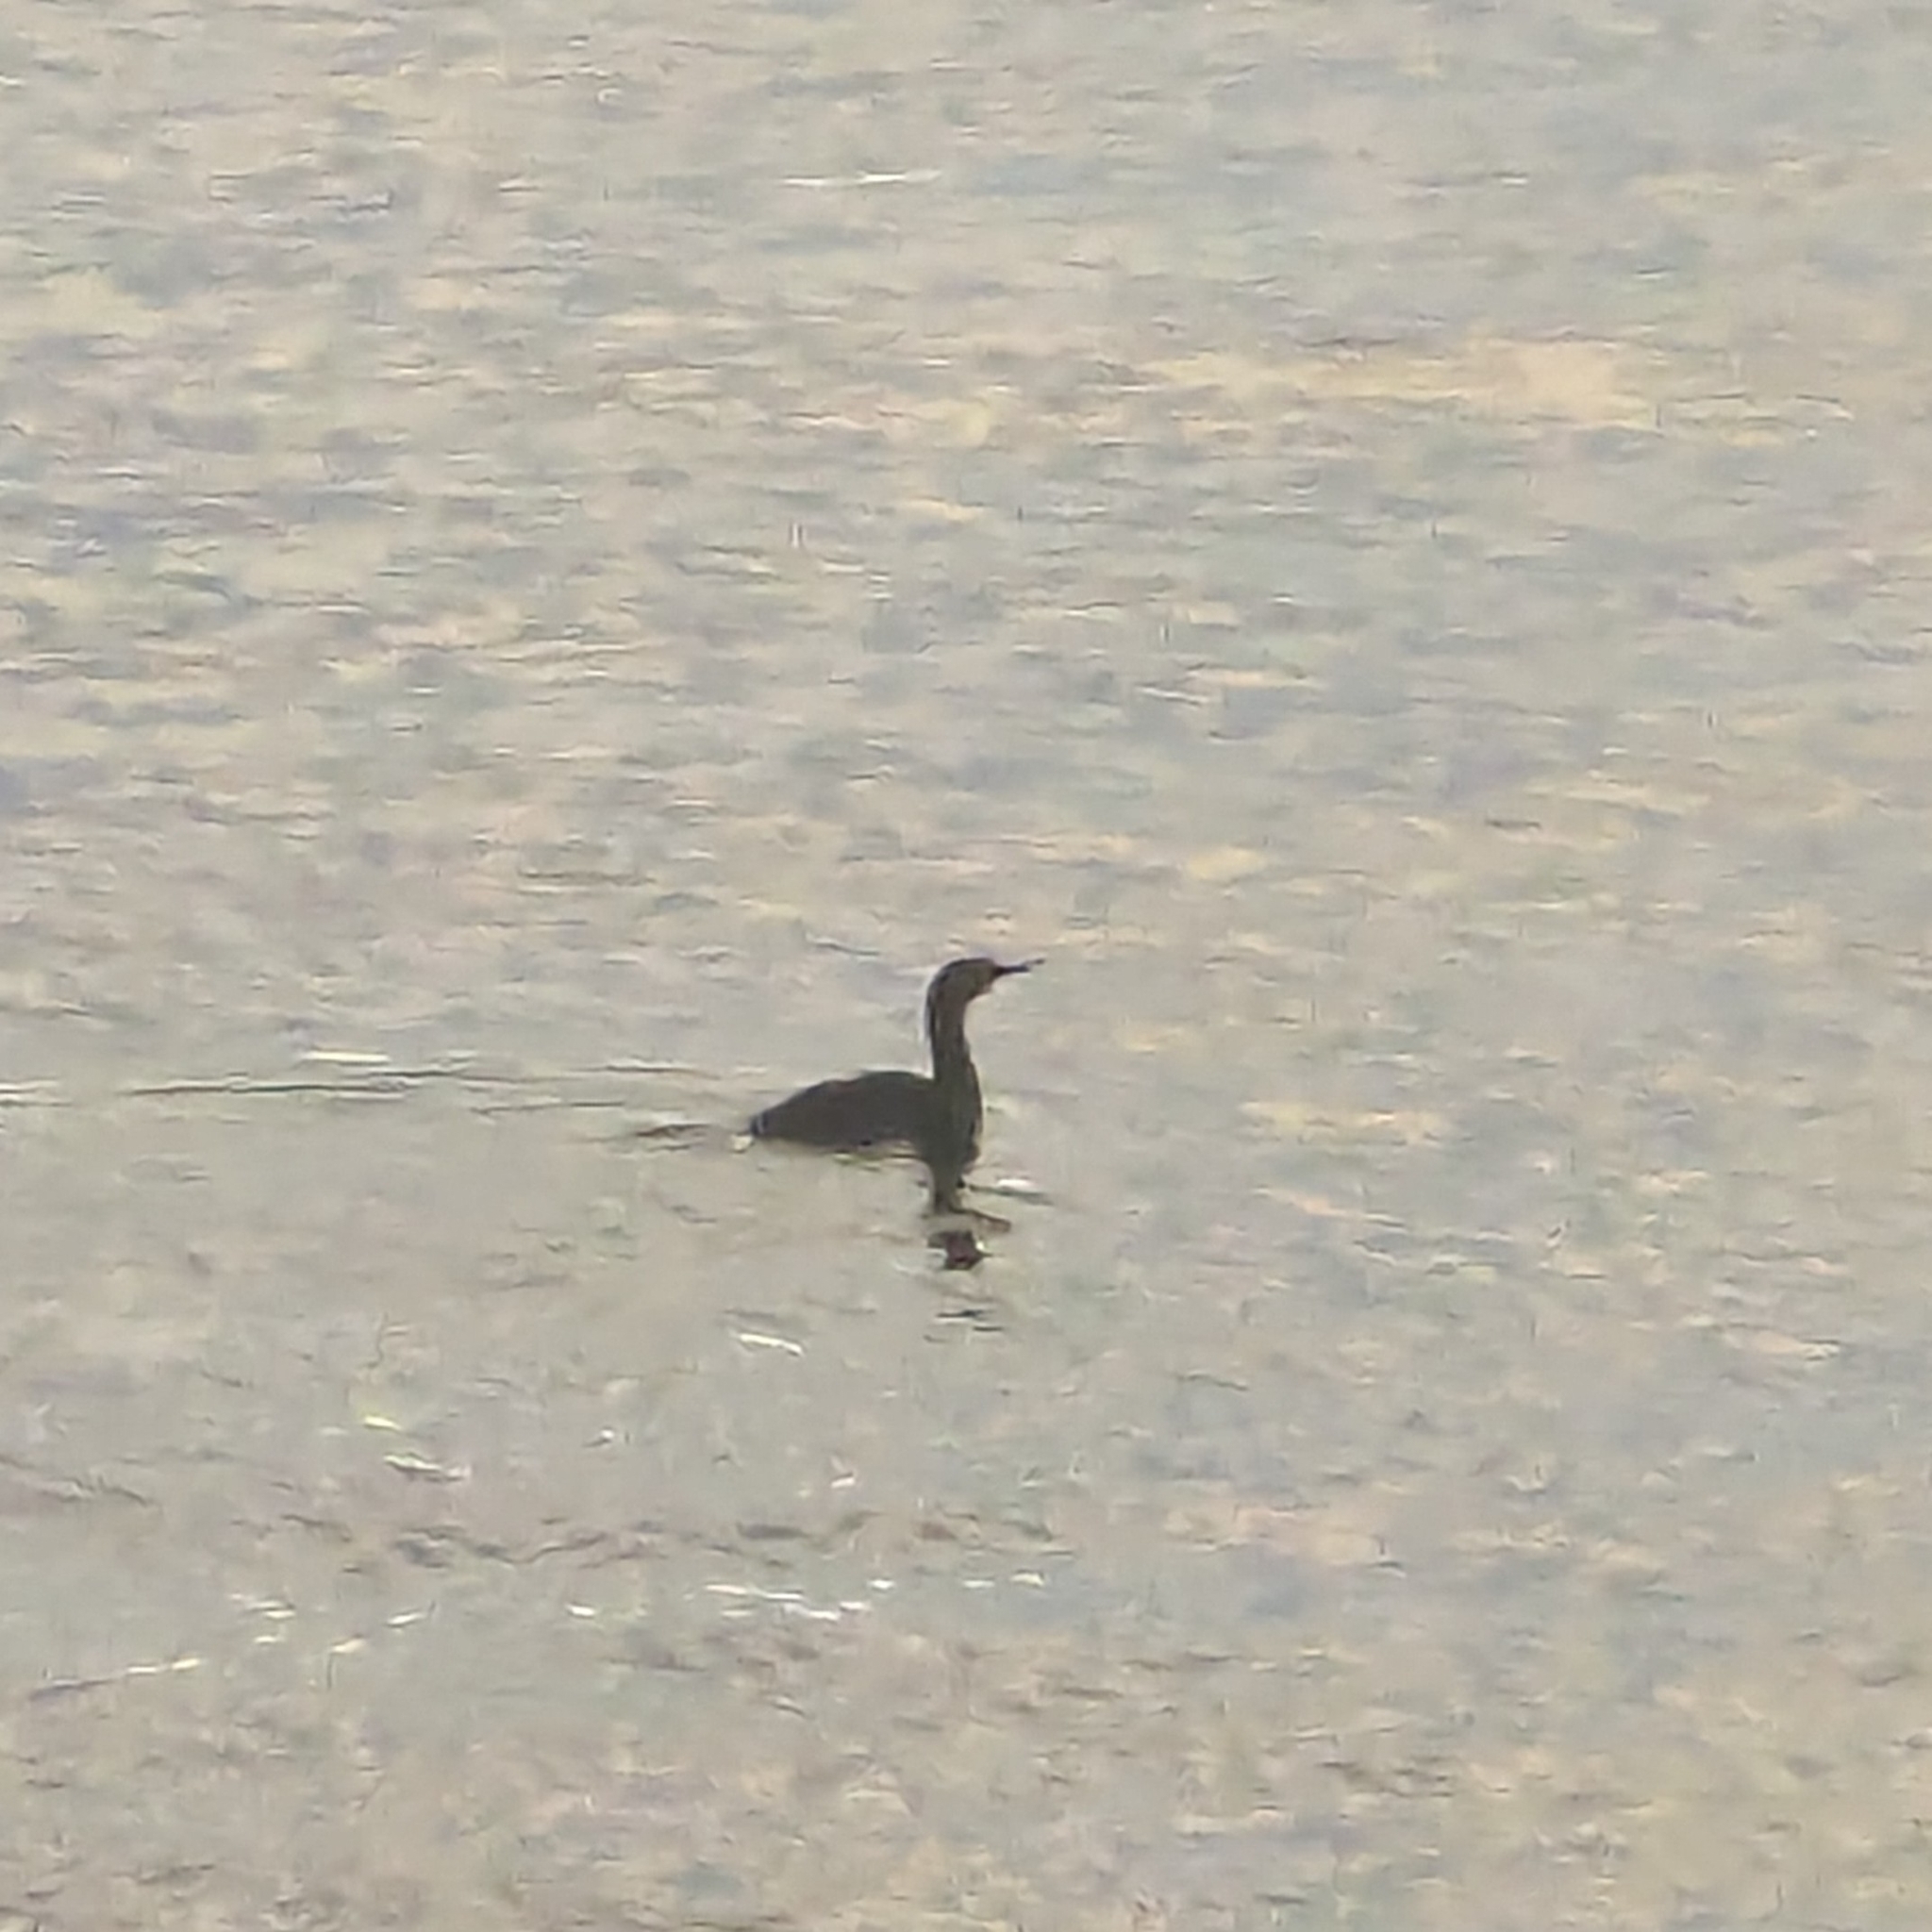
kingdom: Animalia
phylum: Chordata
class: Aves
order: Suliformes
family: Phalacrocoracidae
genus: Phalacrocorax
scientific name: Phalacrocorax pelagicus
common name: Pelagic cormorant
